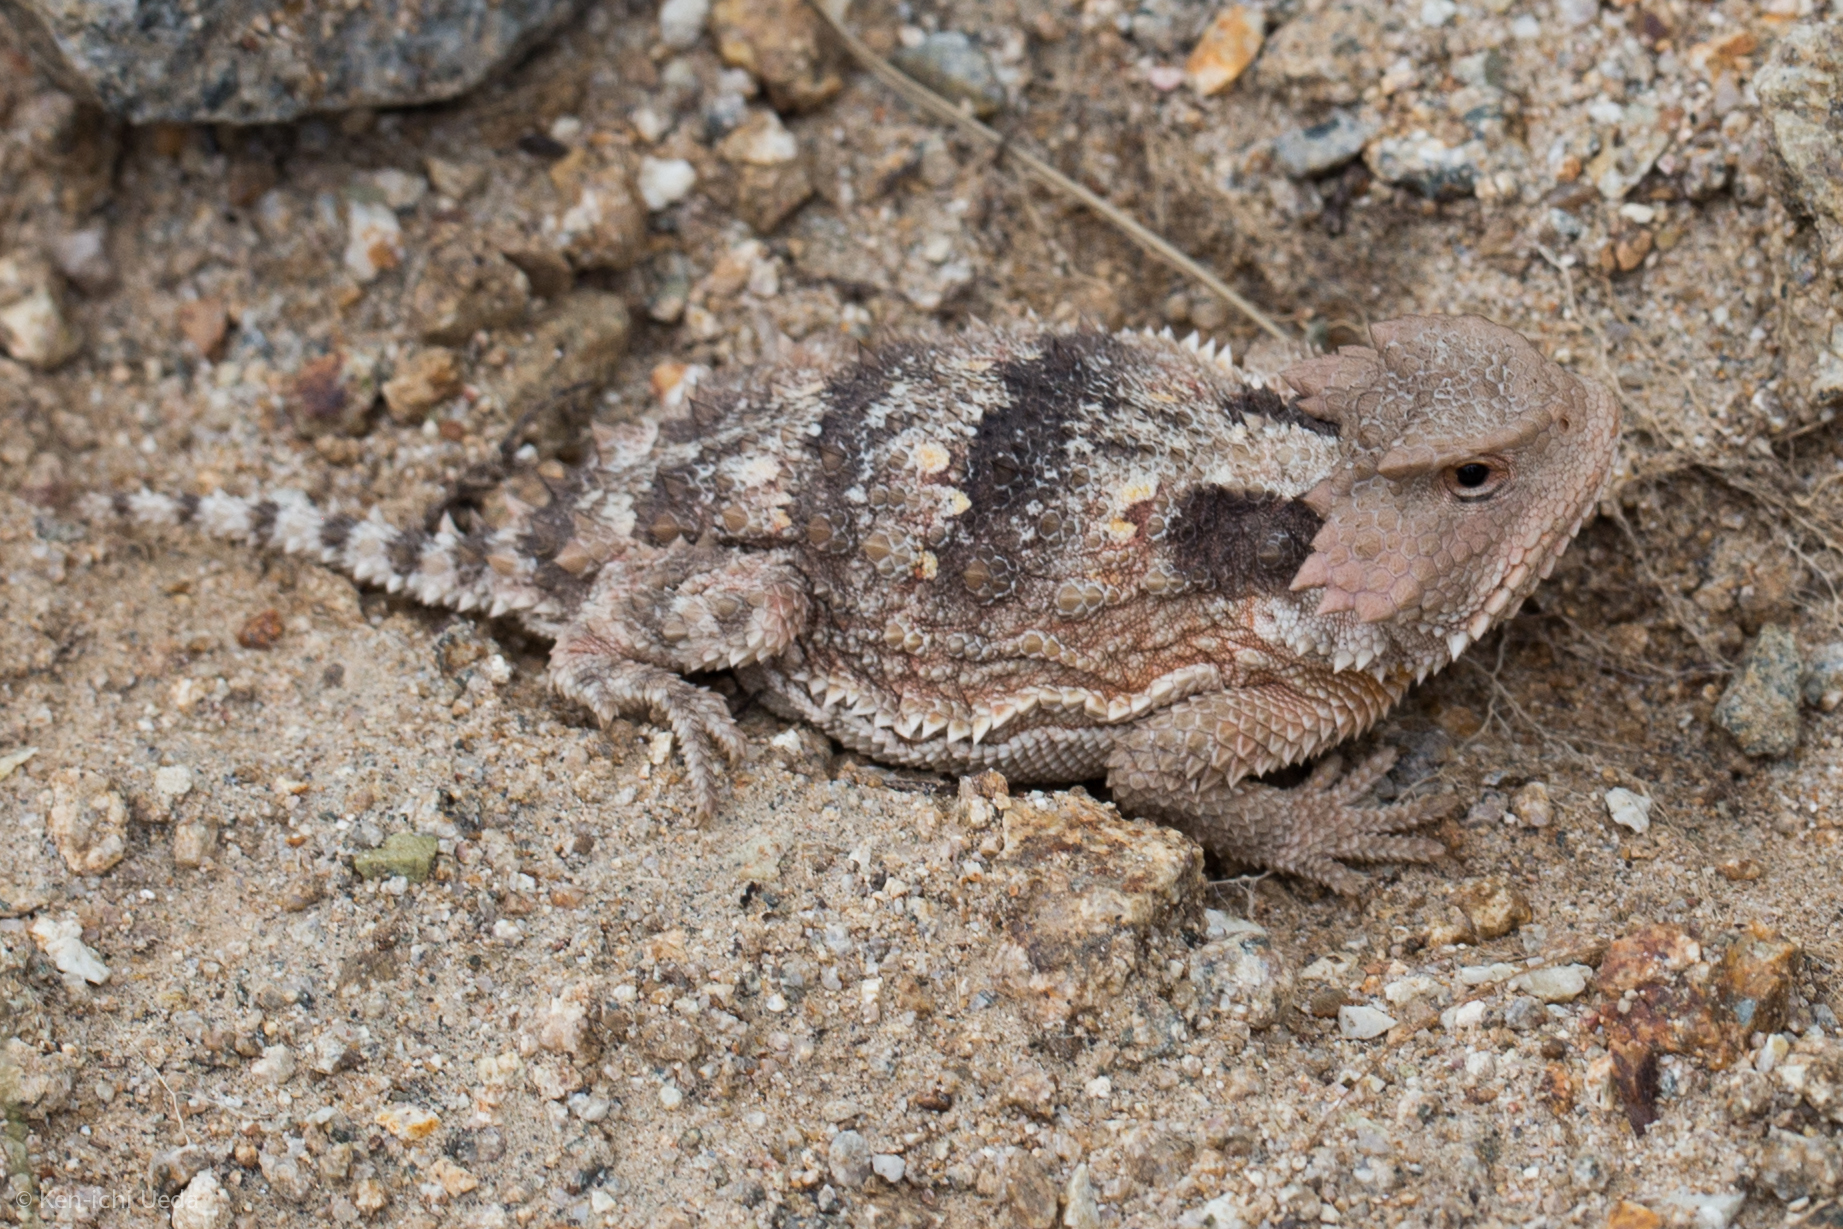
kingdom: Animalia
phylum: Chordata
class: Squamata
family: Phrynosomatidae
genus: Phrynosoma
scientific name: Phrynosoma hernandesi
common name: Greater short-horned lizard
